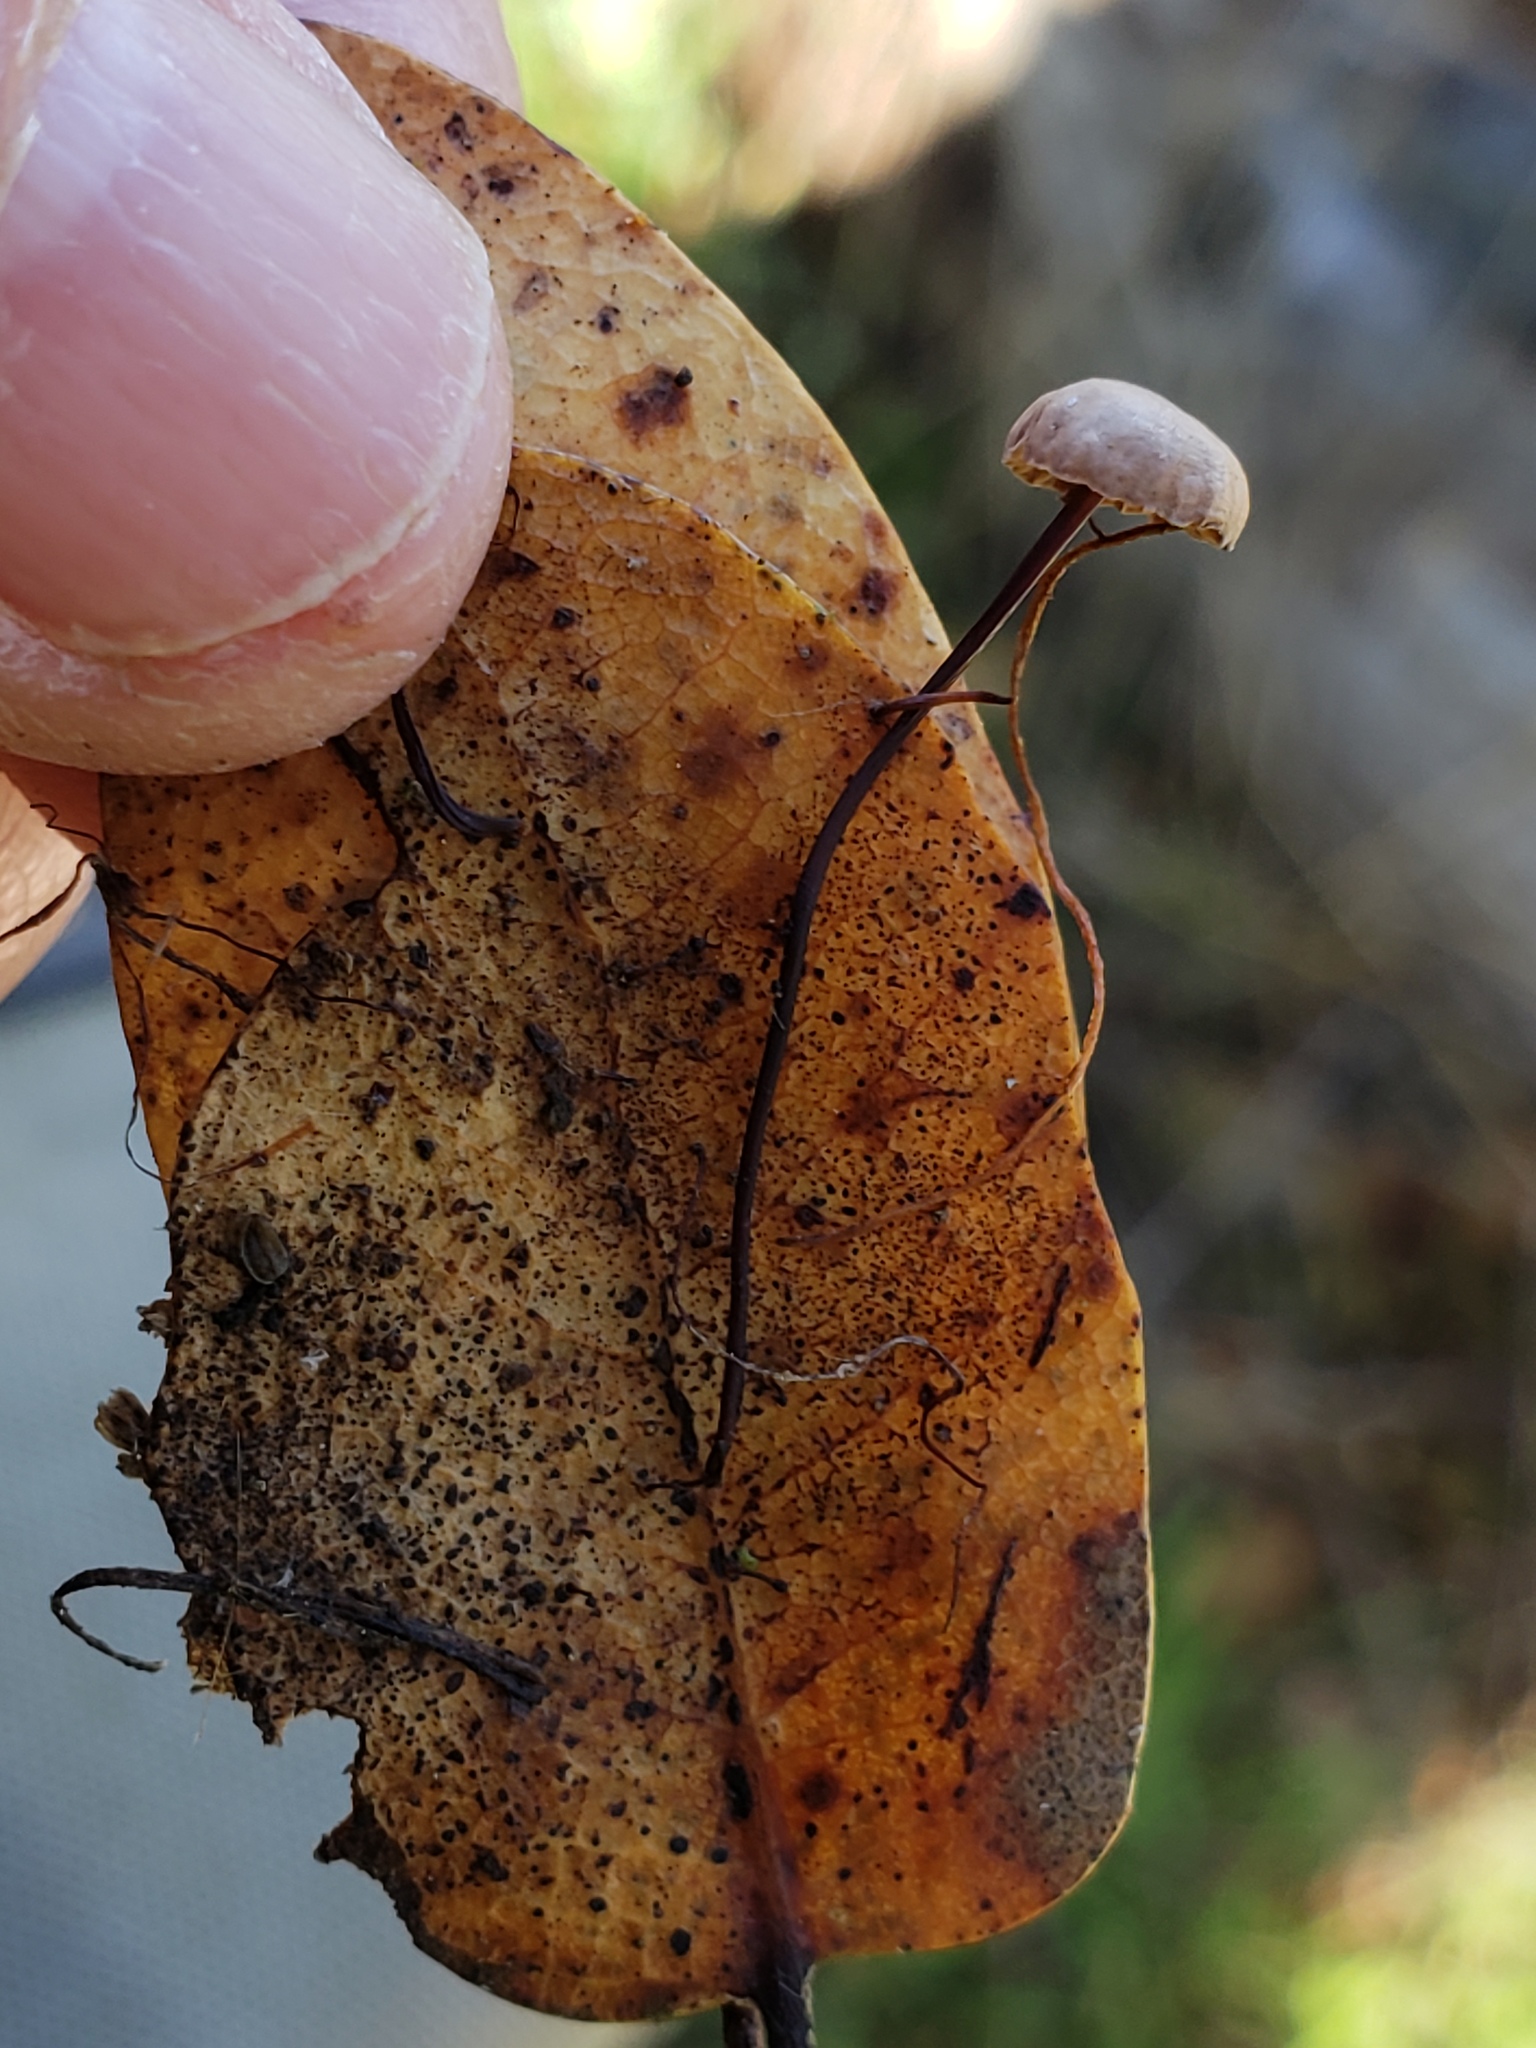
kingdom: Fungi
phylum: Basidiomycota
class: Agaricomycetes
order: Agaricales
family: Omphalotaceae
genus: Collybiopsis
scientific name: Collybiopsis quercophila
